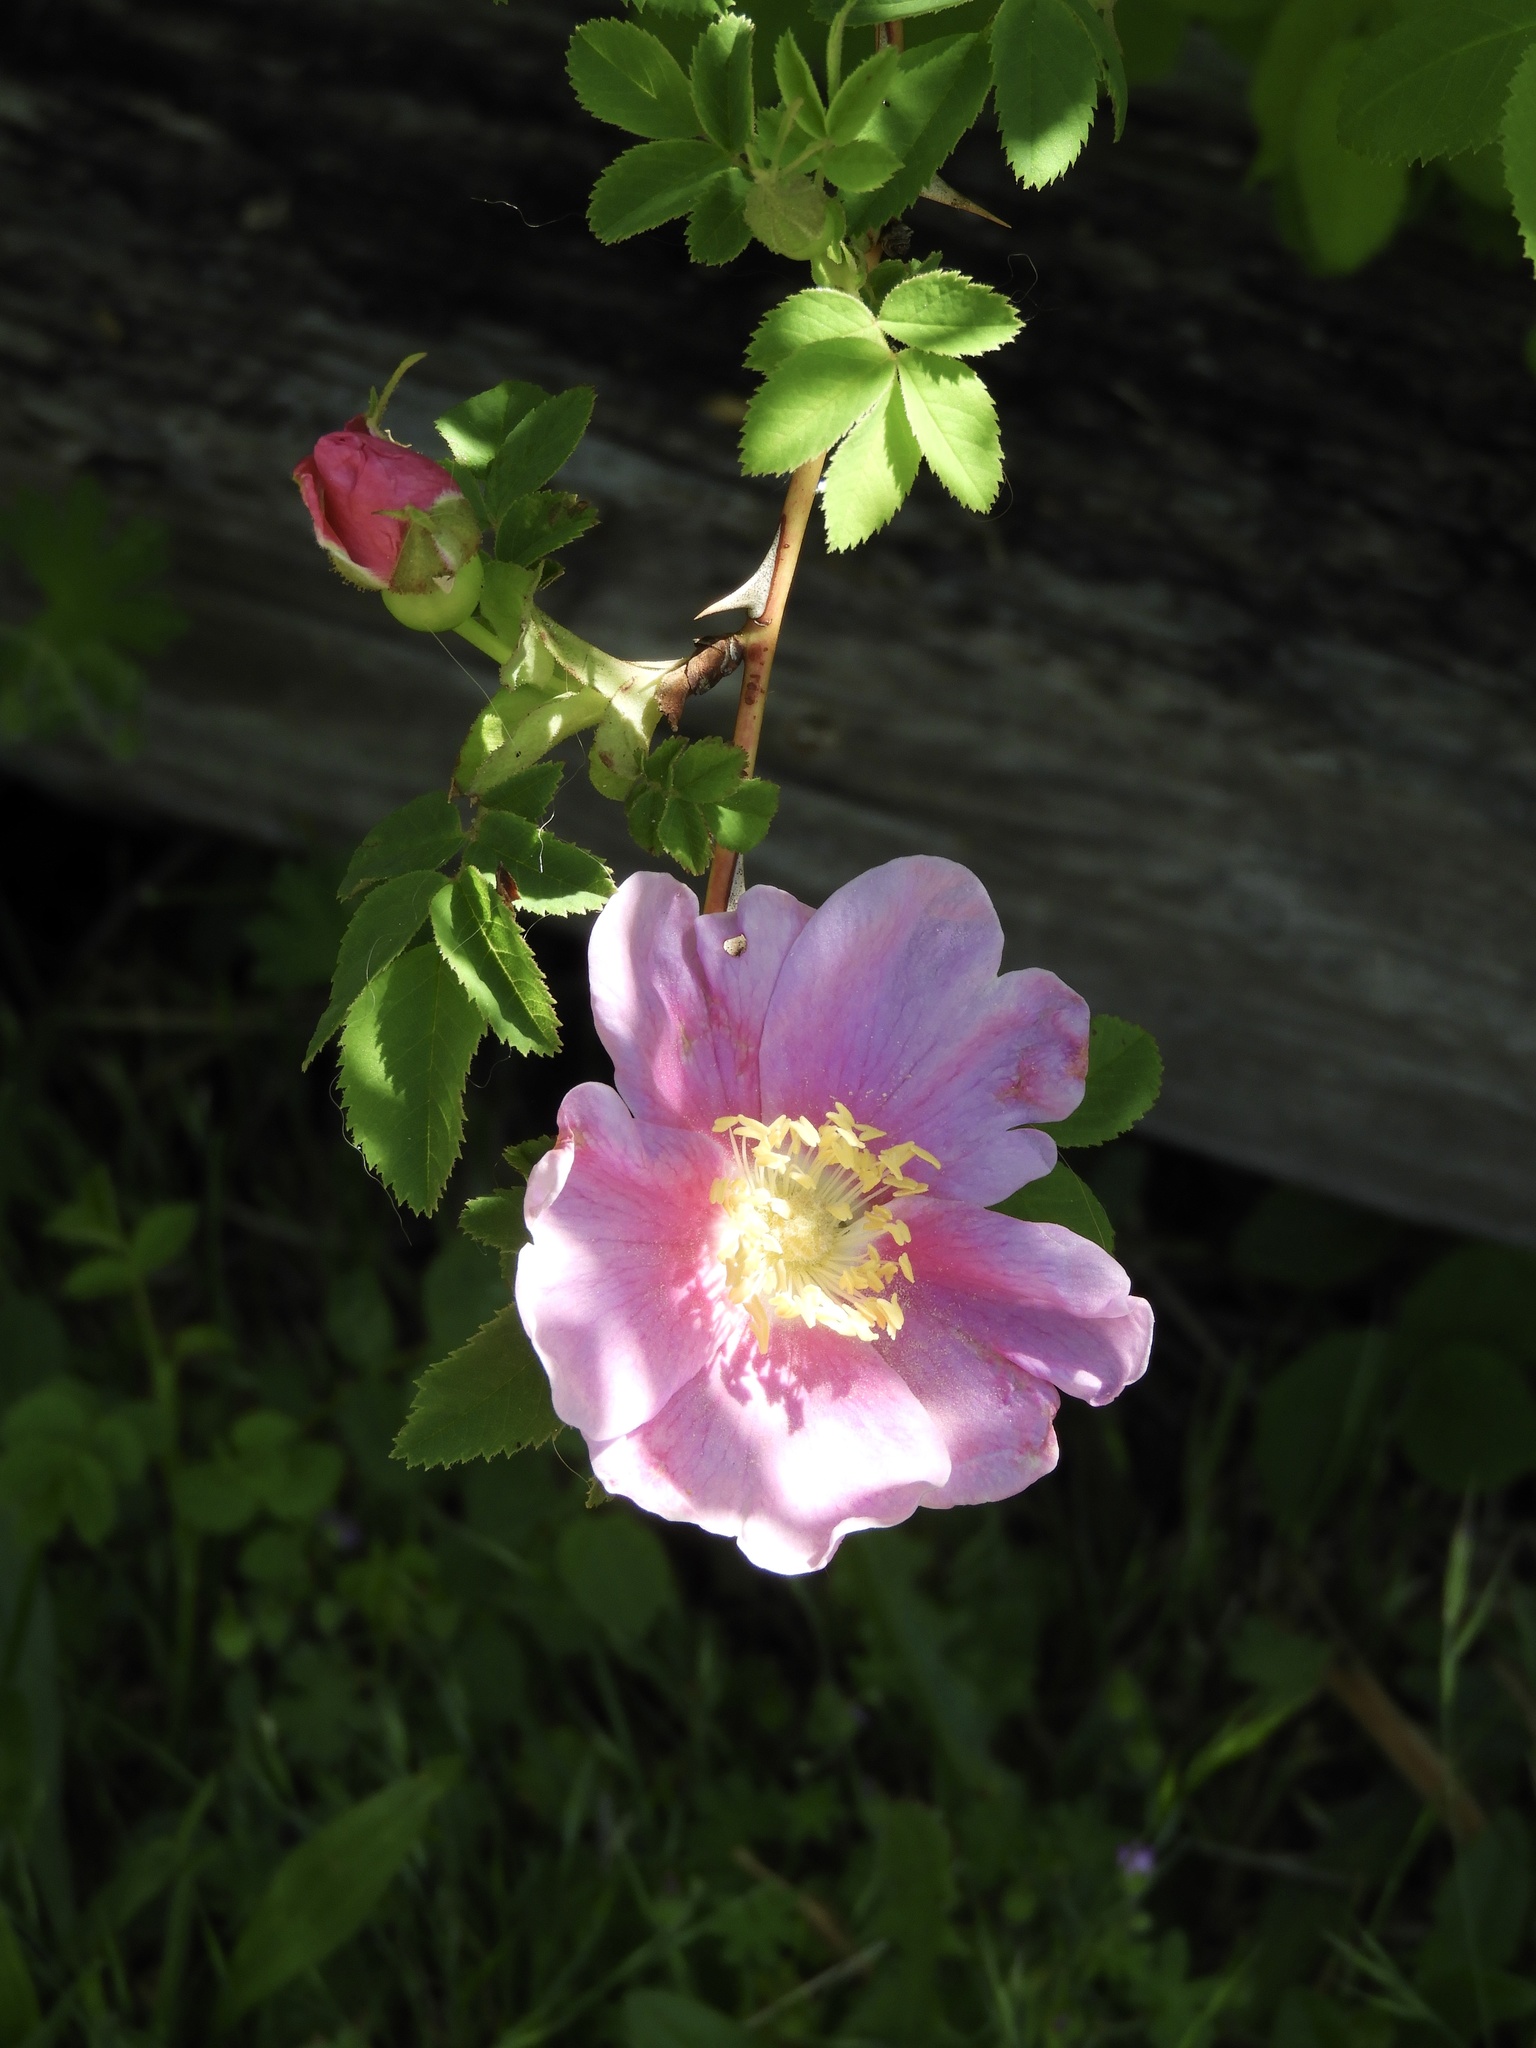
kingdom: Plantae
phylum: Tracheophyta
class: Magnoliopsida
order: Rosales
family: Rosaceae
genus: Rosa
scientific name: Rosa nutkana
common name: Nootka rose
